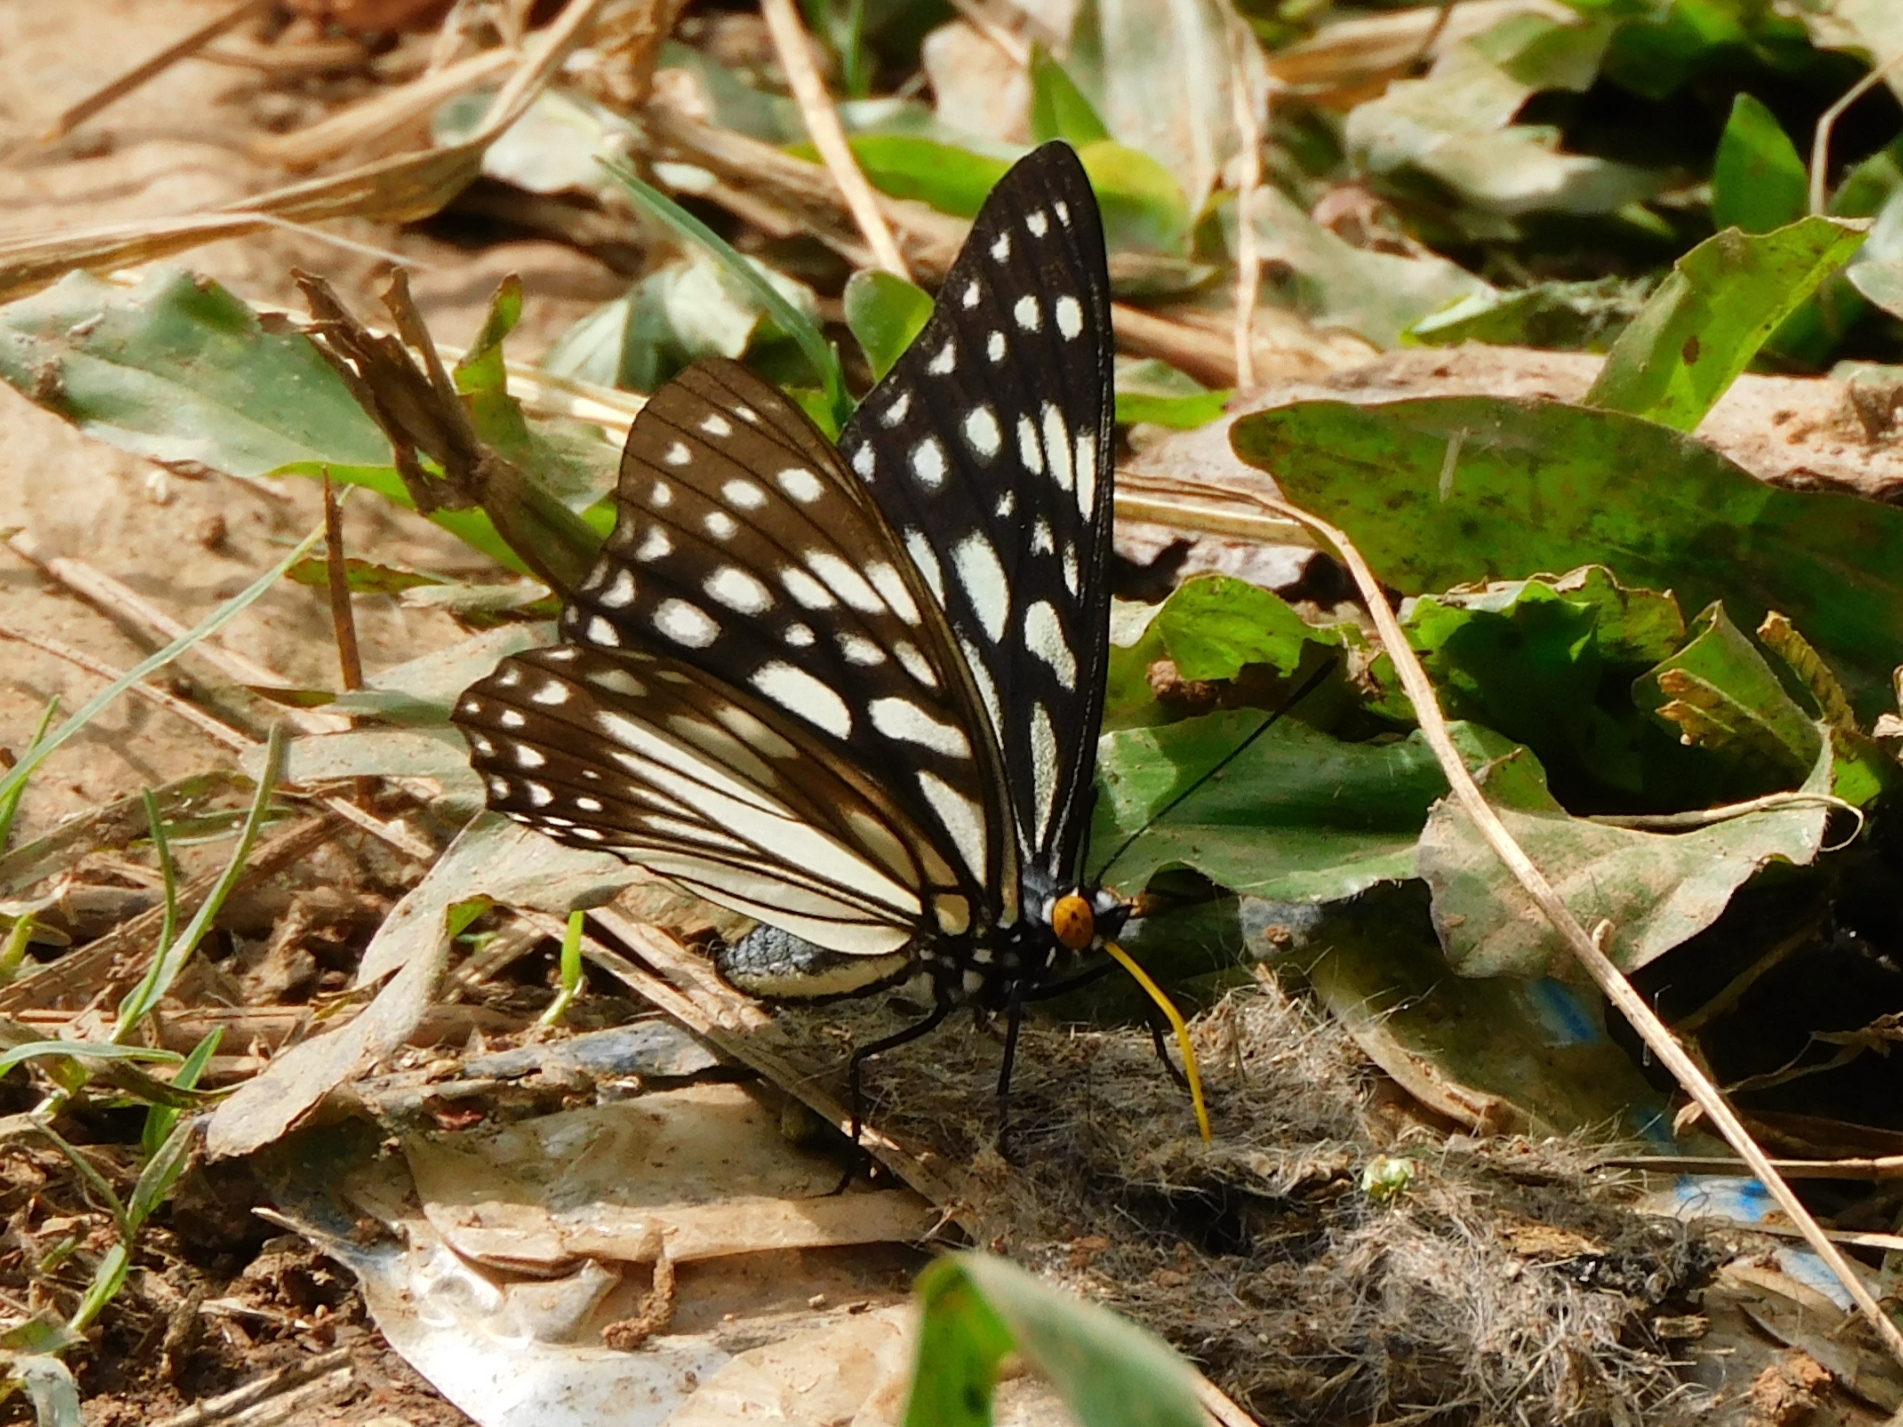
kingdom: Animalia
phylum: Arthropoda
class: Insecta
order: Lepidoptera
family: Nymphalidae
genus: Hestina
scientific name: Hestina persimilis
